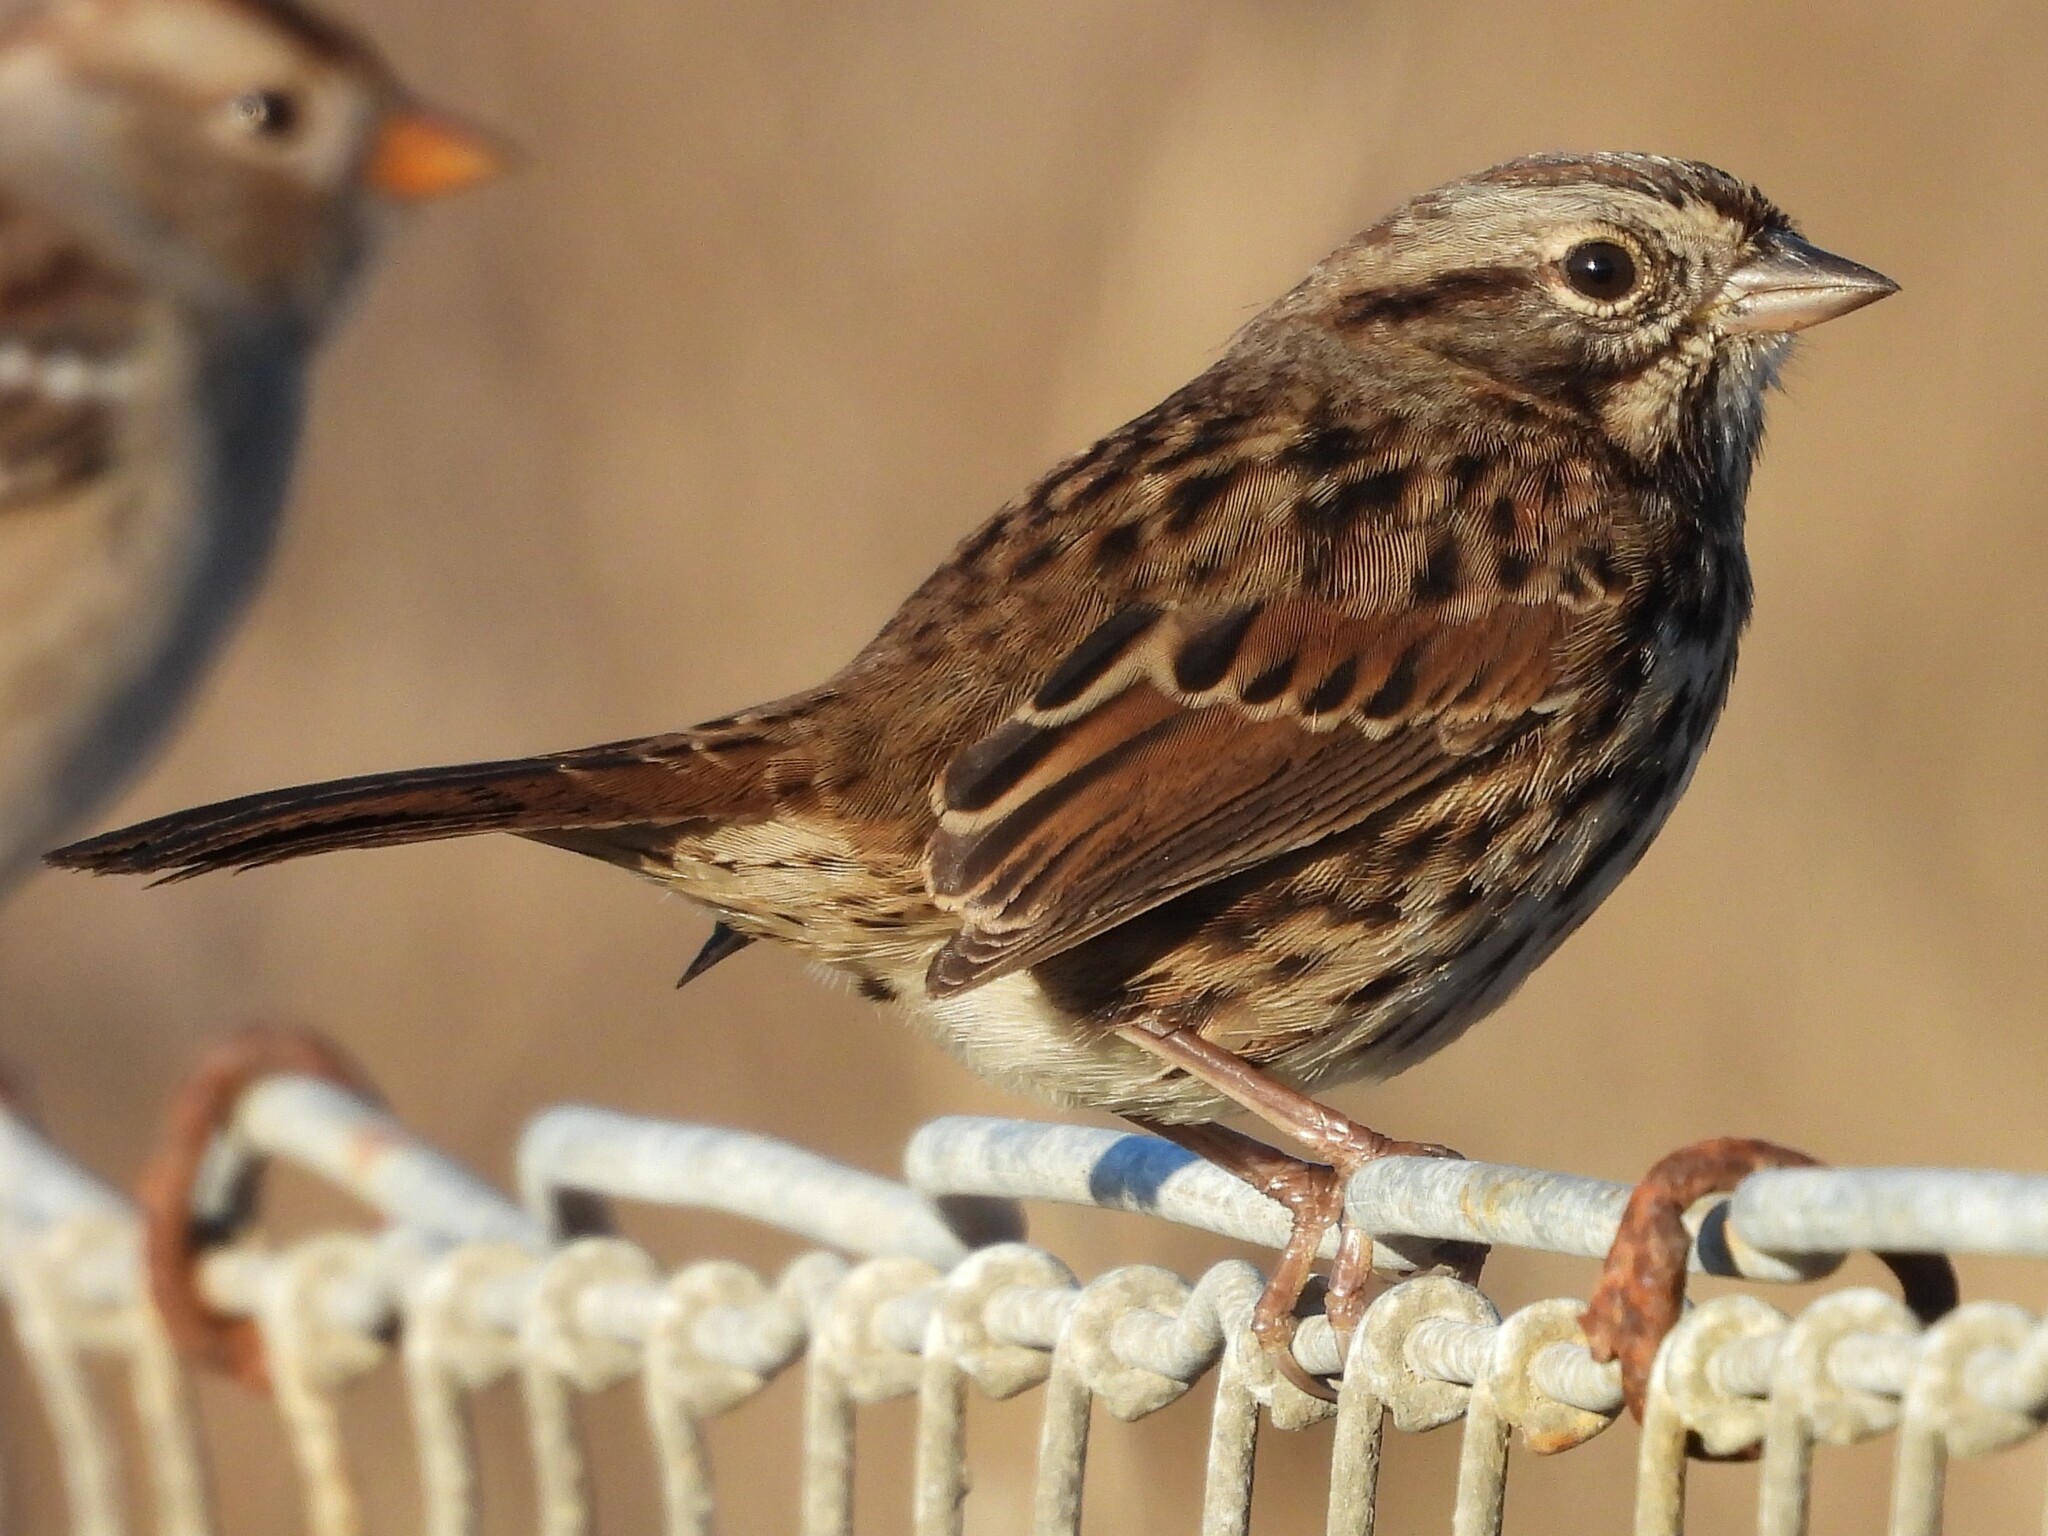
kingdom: Animalia
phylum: Chordata
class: Aves
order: Passeriformes
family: Passerellidae
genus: Melospiza
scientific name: Melospiza melodia
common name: Song sparrow
